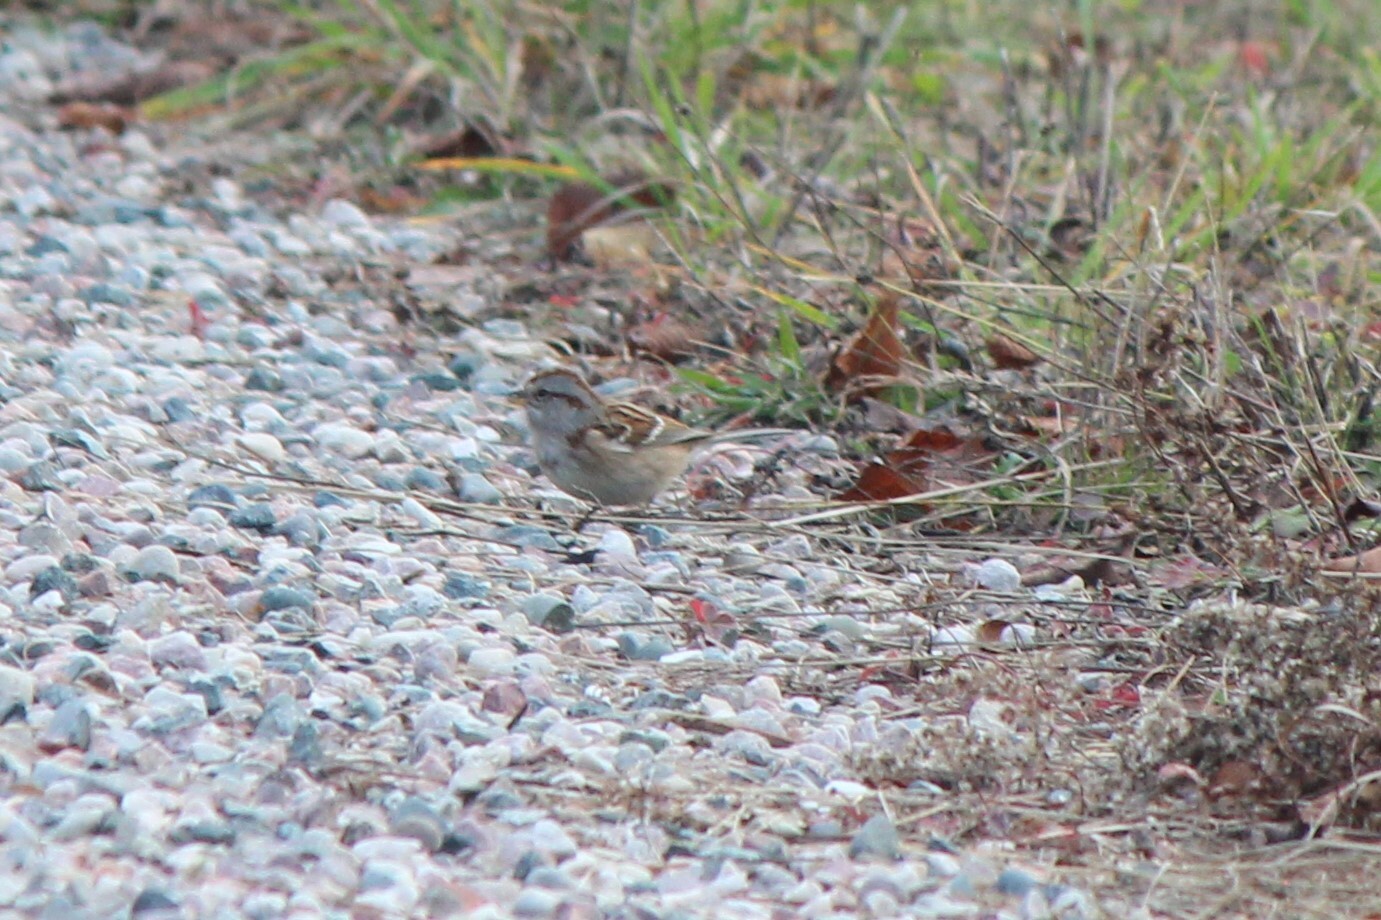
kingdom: Animalia
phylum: Chordata
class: Aves
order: Passeriformes
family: Passerellidae
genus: Spizelloides
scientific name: Spizelloides arborea
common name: American tree sparrow
